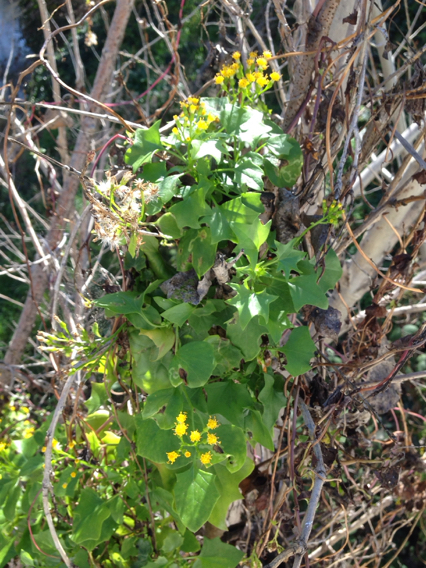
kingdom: Plantae
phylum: Tracheophyta
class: Magnoliopsida
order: Asterales
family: Asteraceae
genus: Delairea
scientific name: Delairea odorata
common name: Cape-ivy
